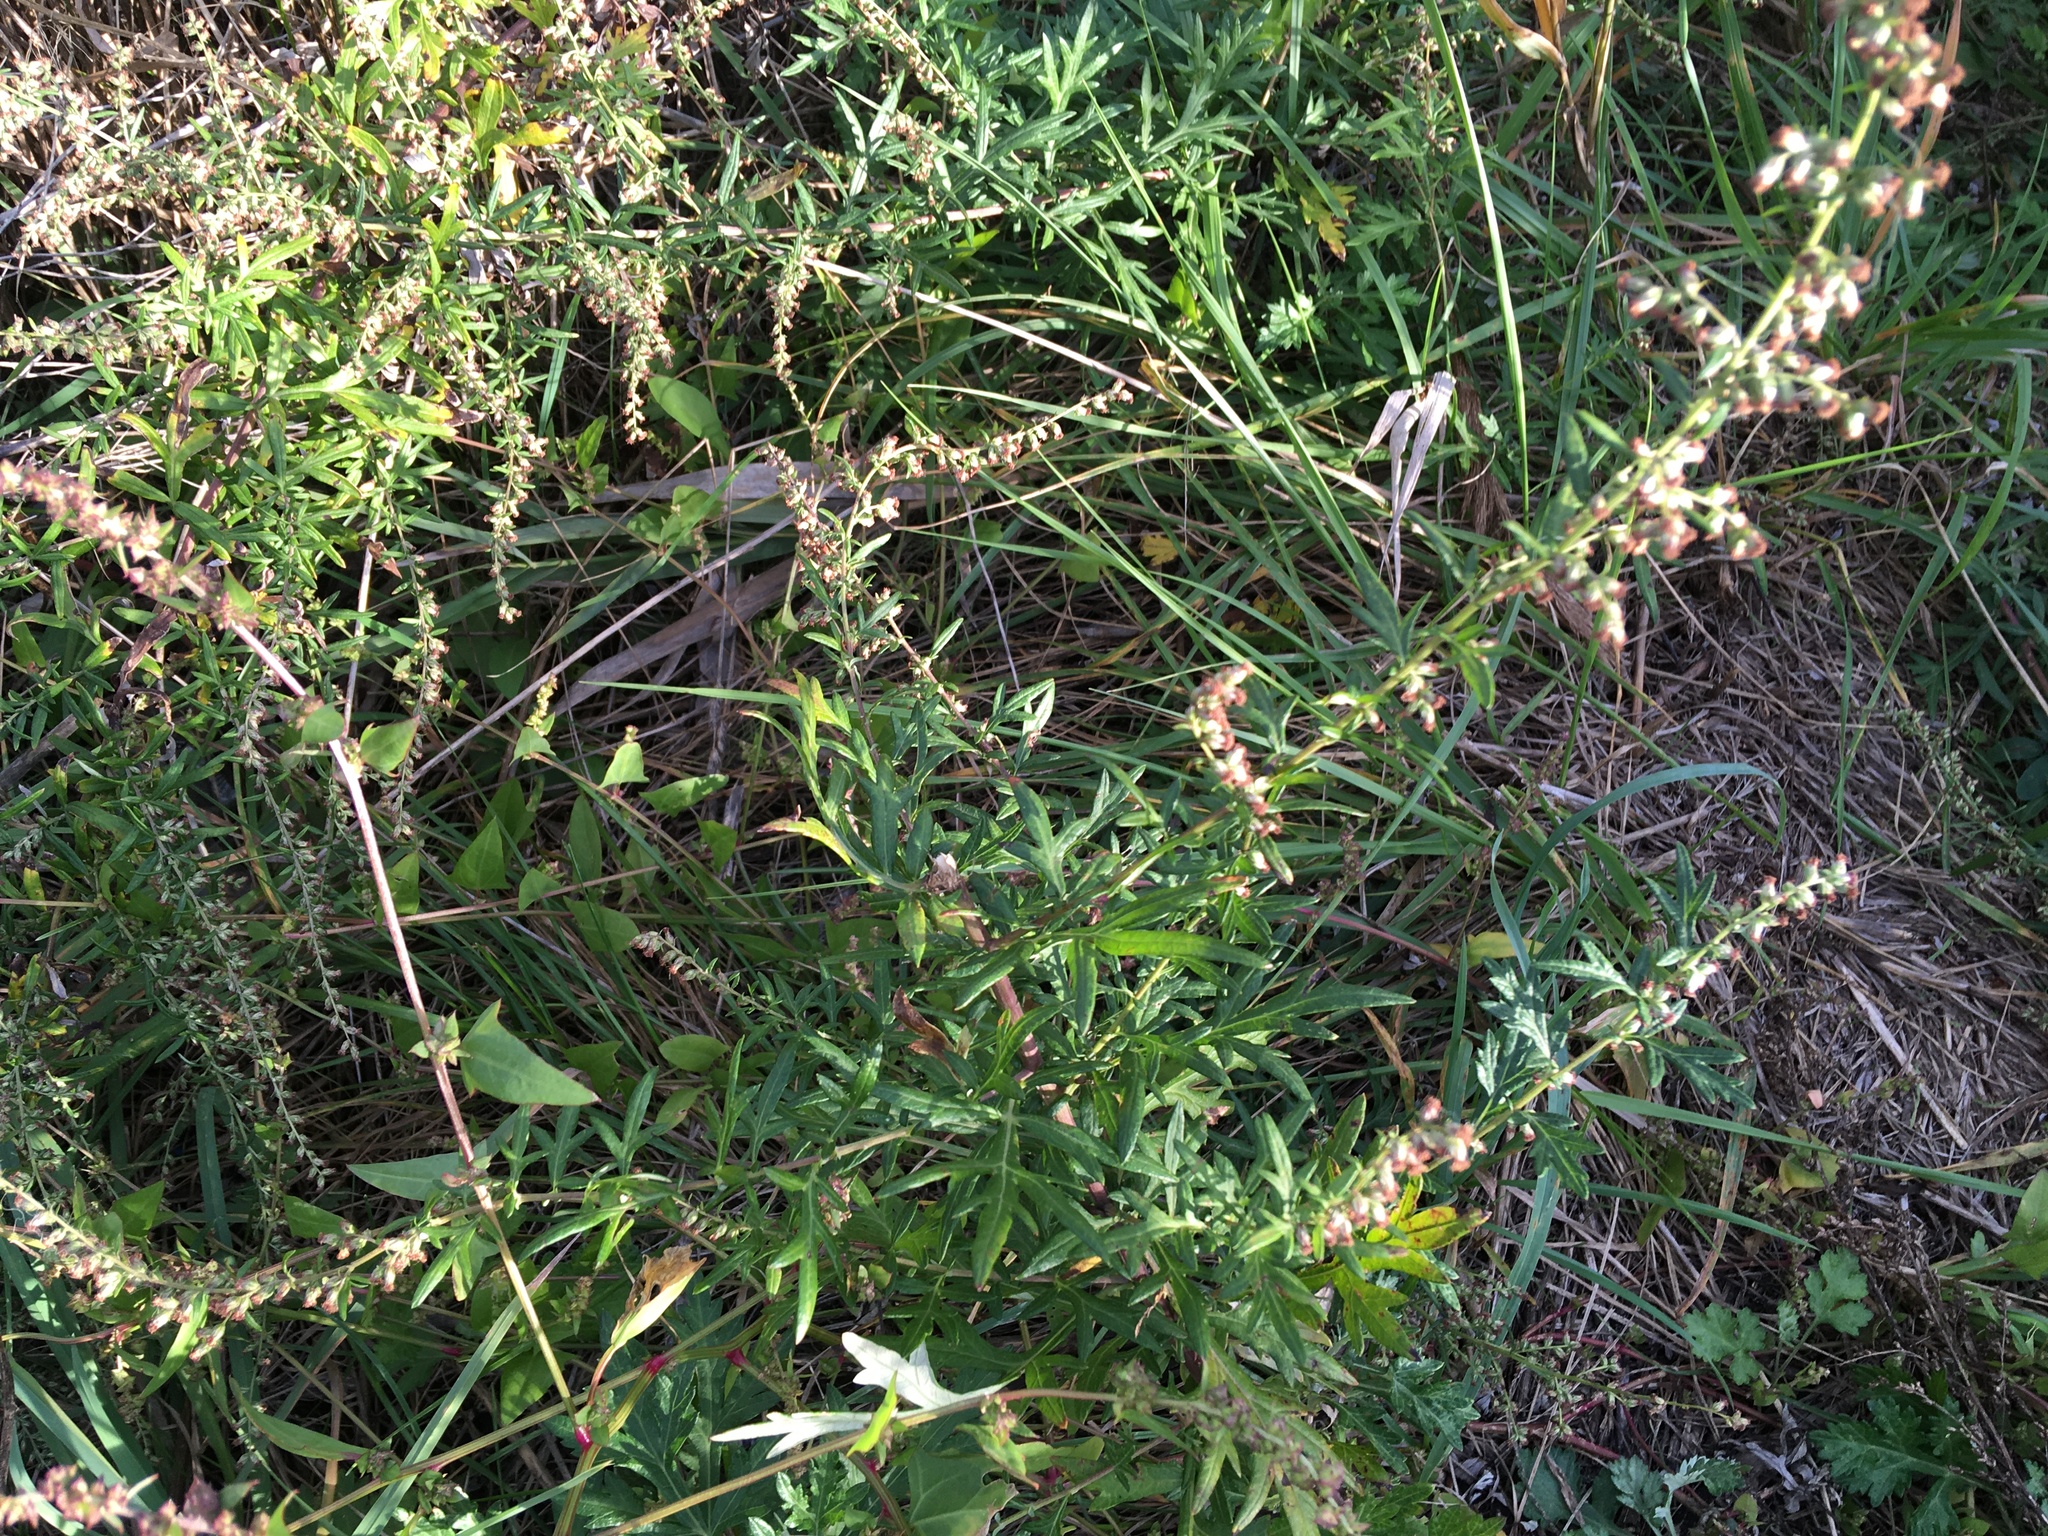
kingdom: Plantae
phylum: Tracheophyta
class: Magnoliopsida
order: Asterales
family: Asteraceae
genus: Artemisia
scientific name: Artemisia vulgaris
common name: Mugwort
